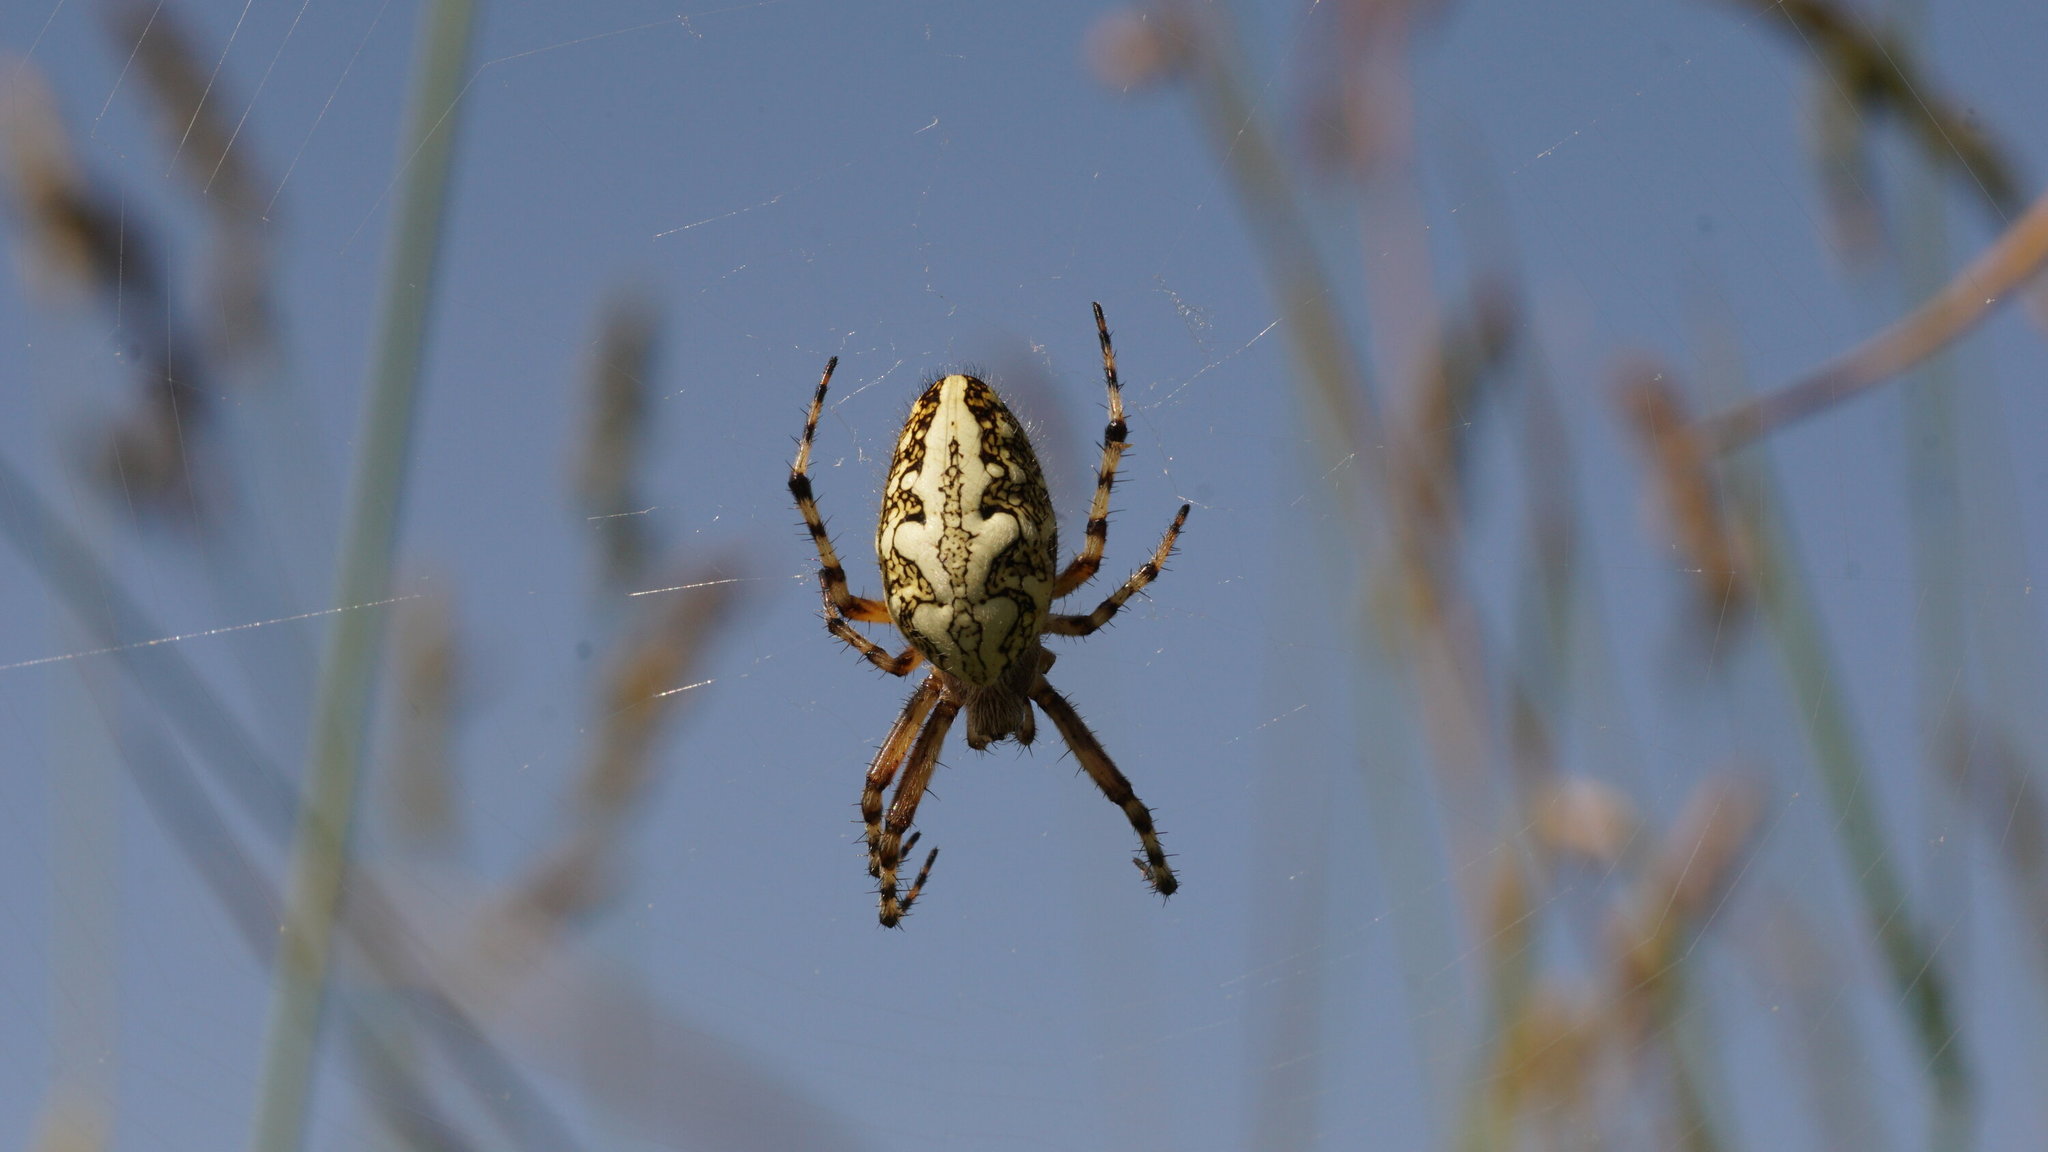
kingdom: Animalia
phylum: Arthropoda
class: Arachnida
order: Araneae
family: Araneidae
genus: Aculepeira
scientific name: Aculepeira ceropegia
